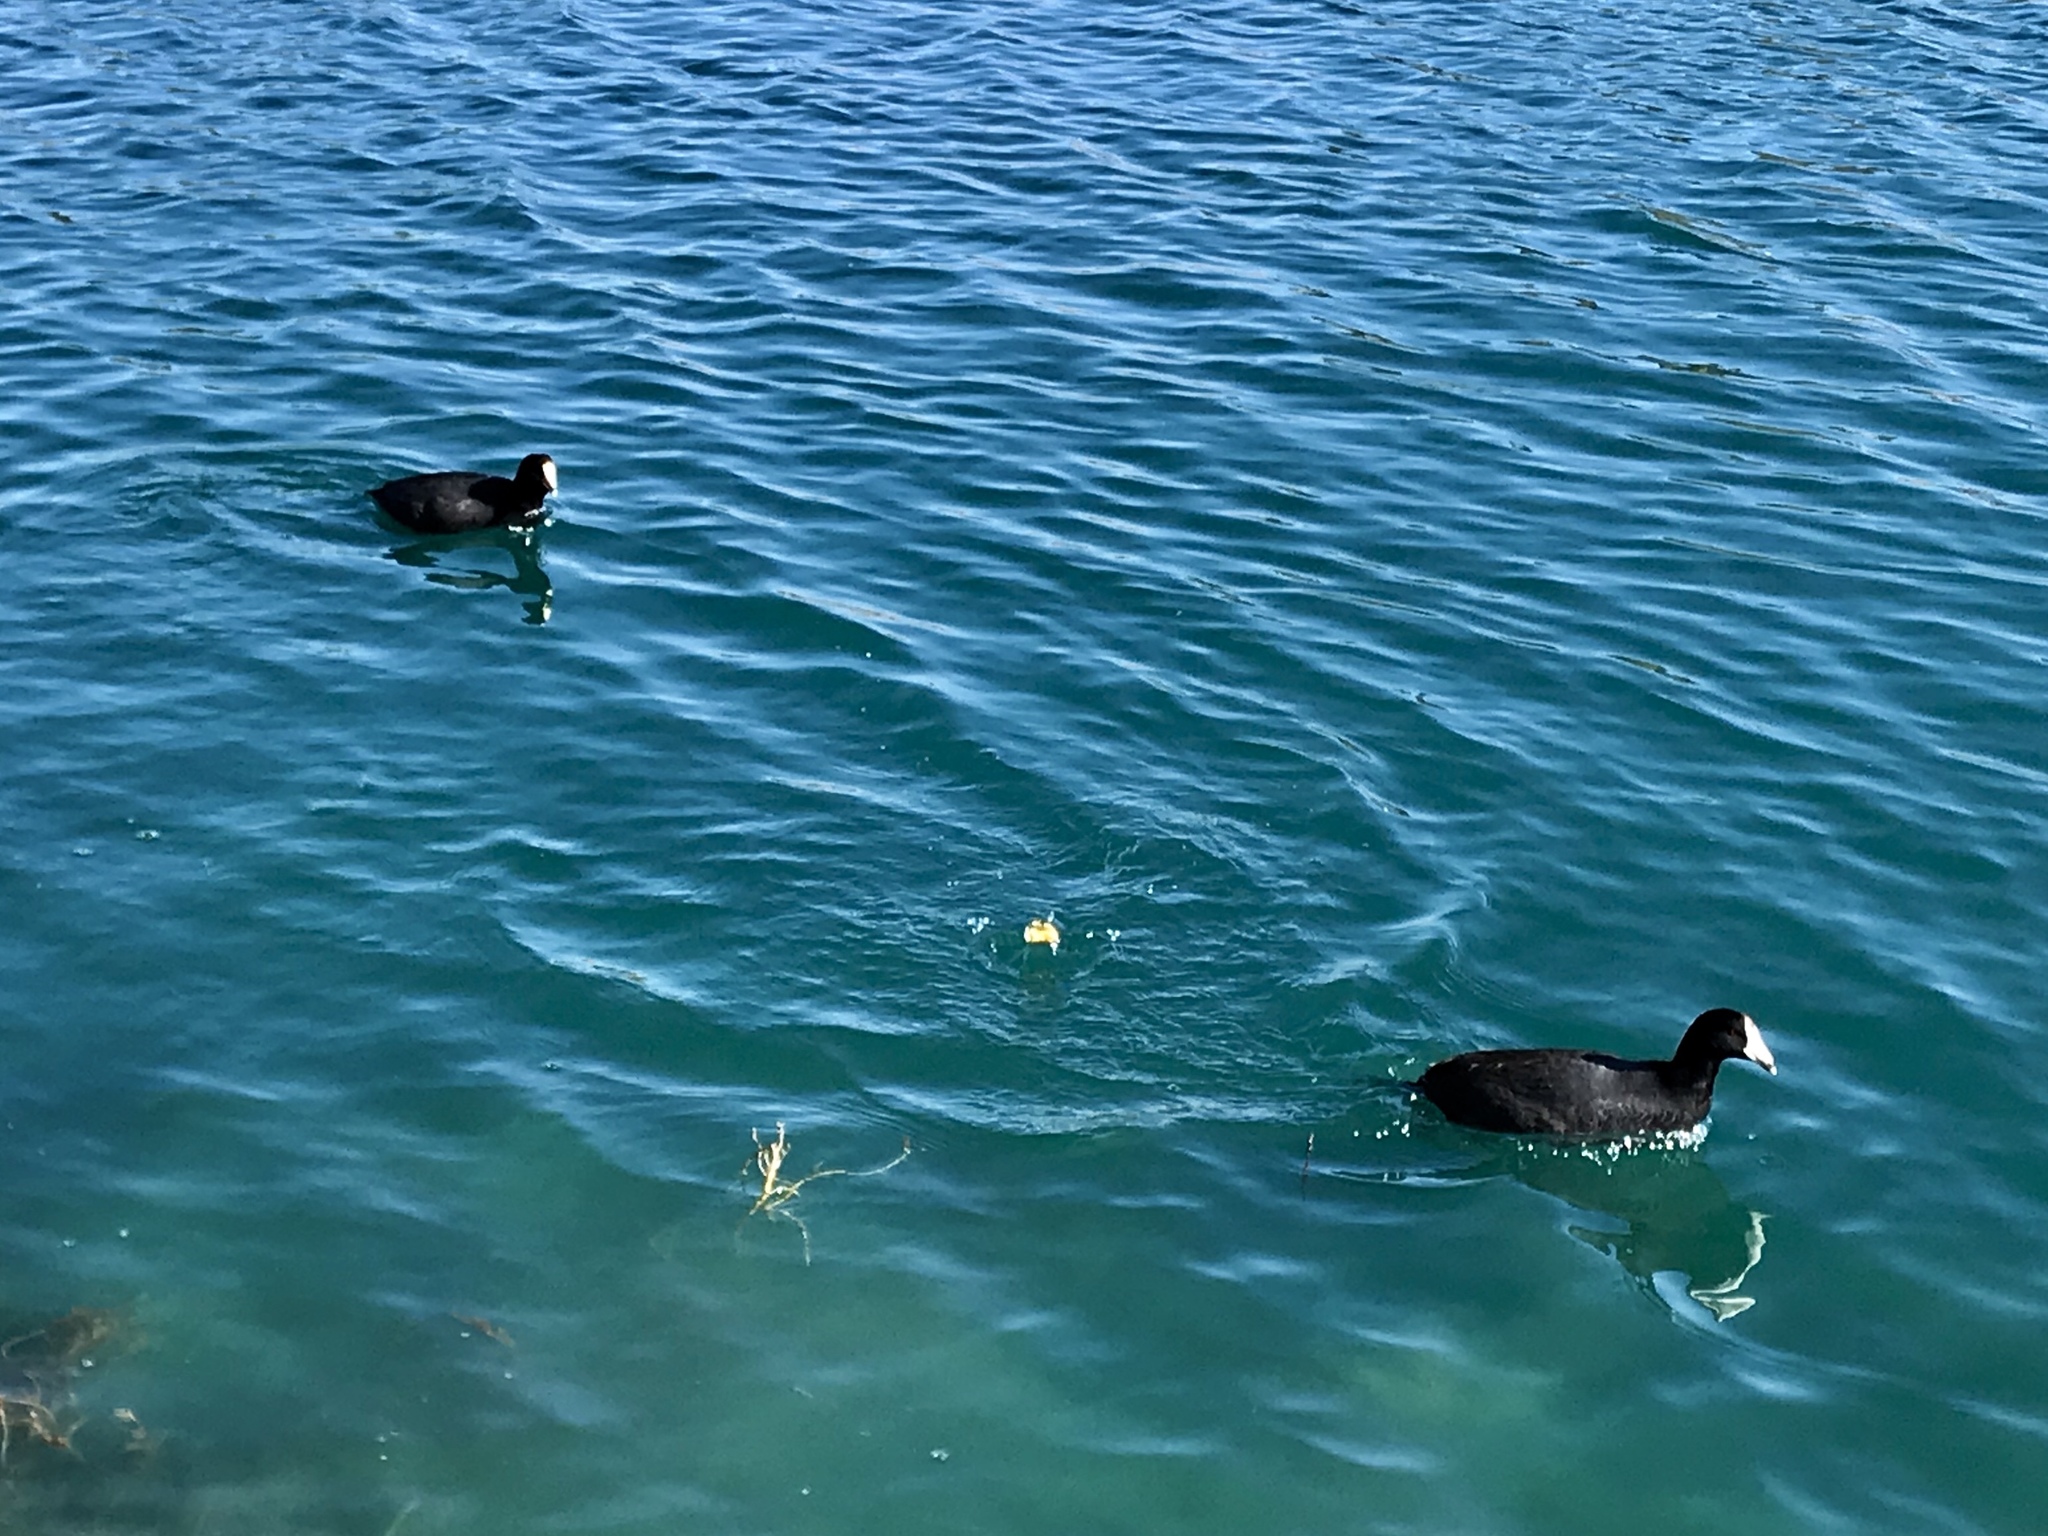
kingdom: Animalia
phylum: Chordata
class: Aves
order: Gruiformes
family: Rallidae
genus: Fulica
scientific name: Fulica americana
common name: American coot
